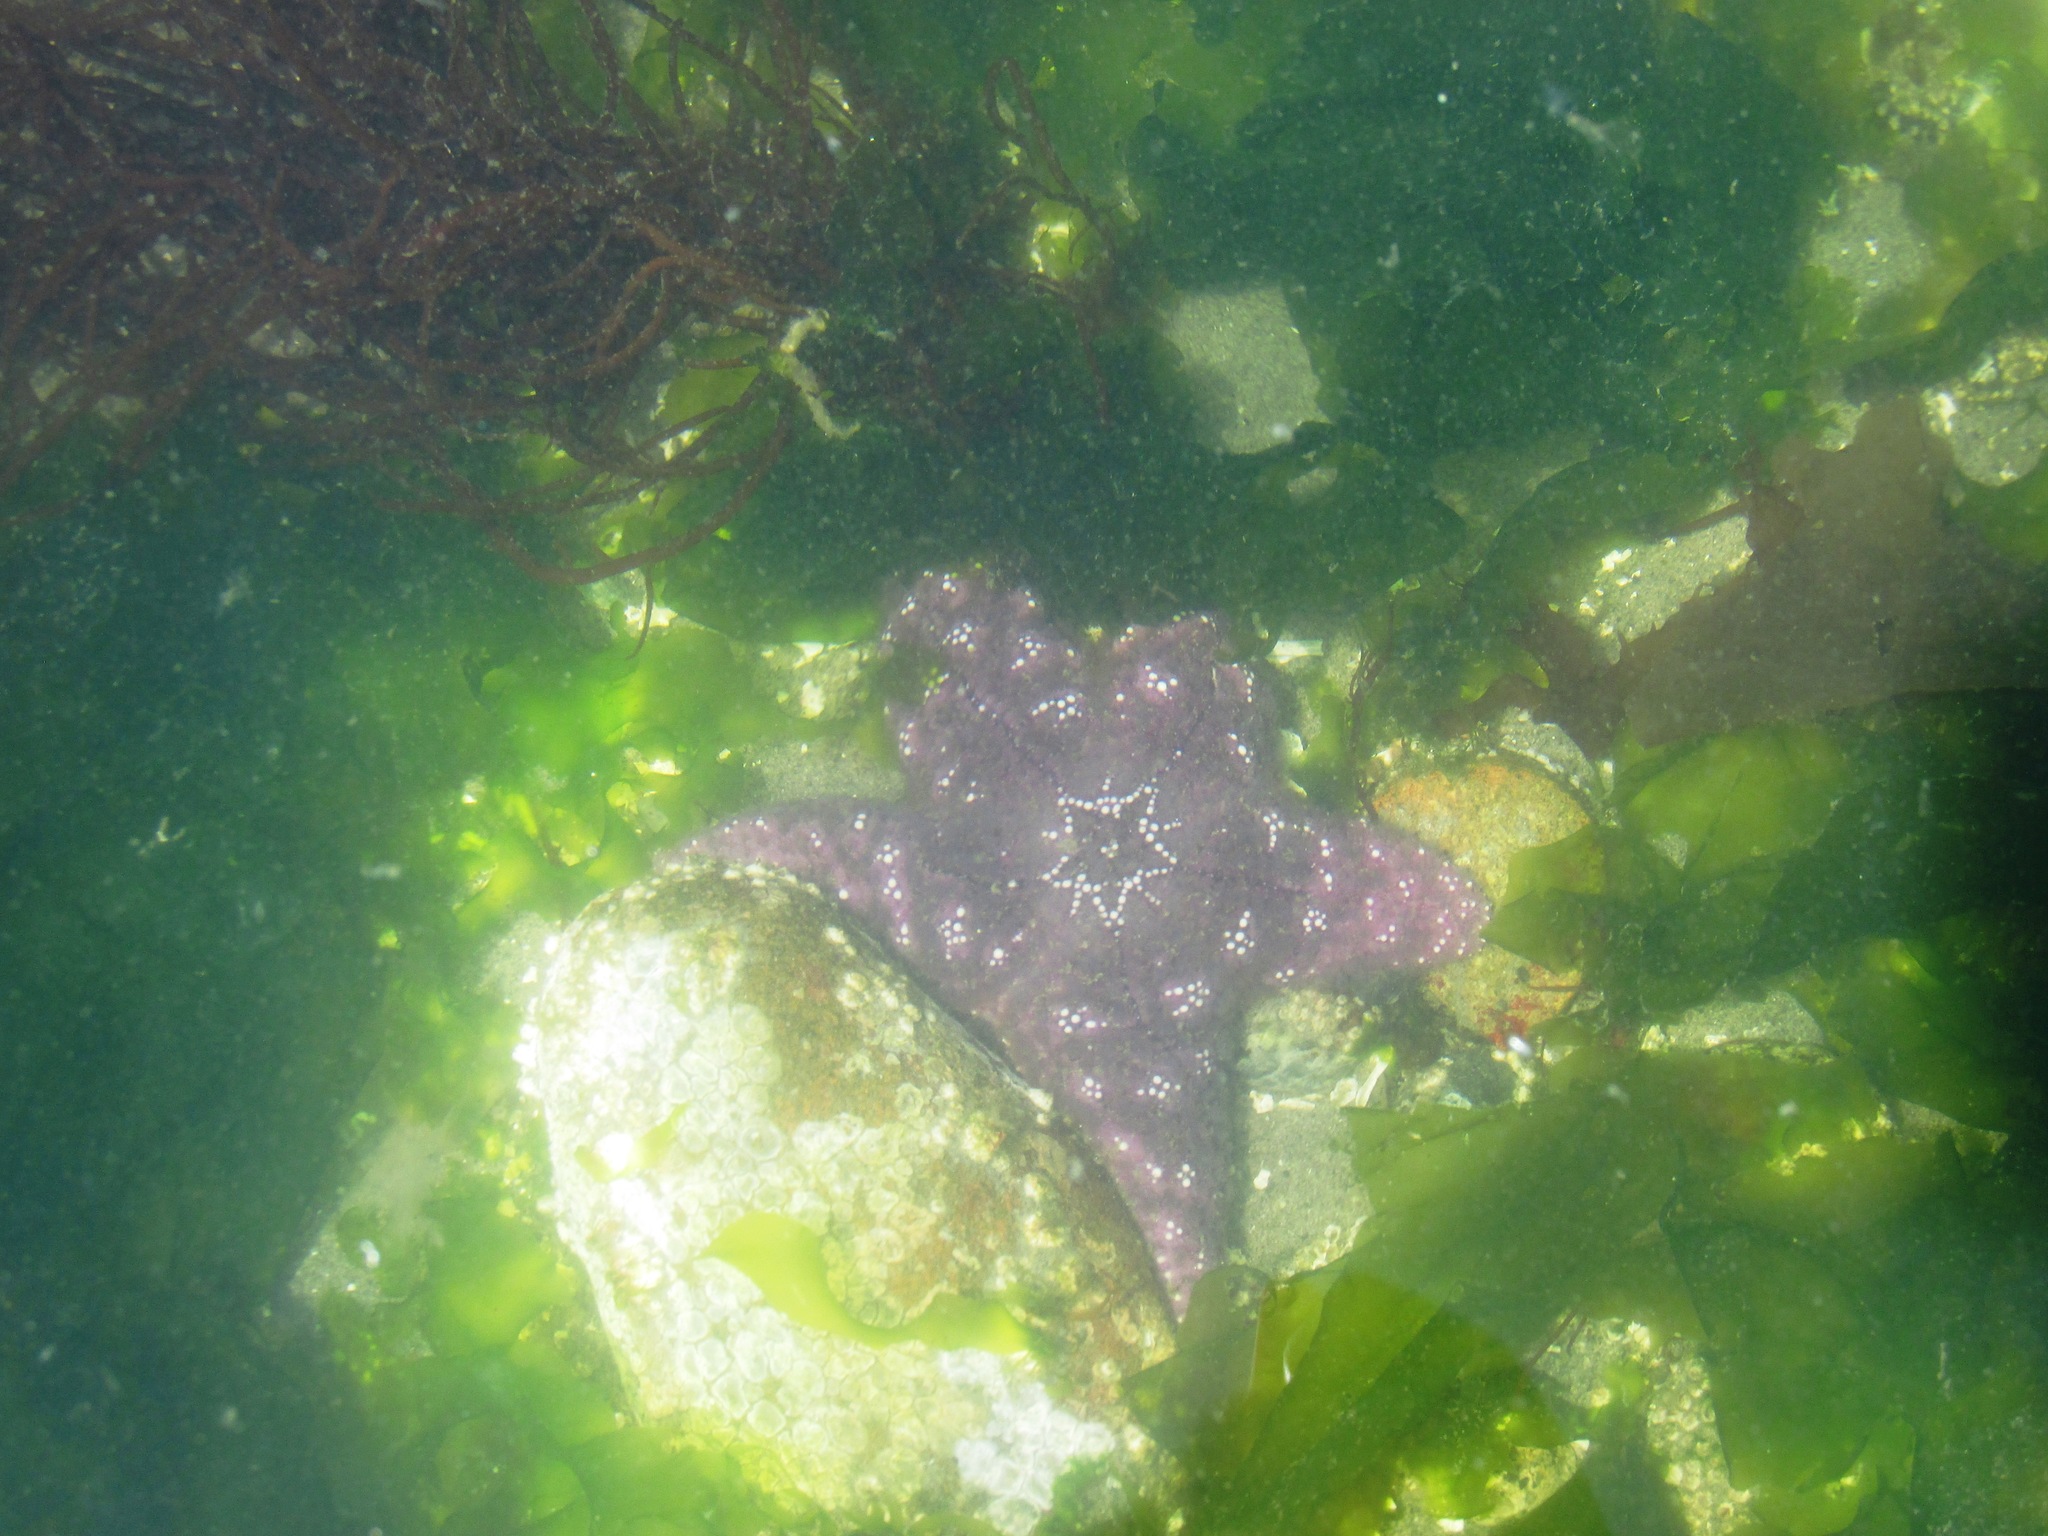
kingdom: Animalia
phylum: Echinodermata
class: Asteroidea
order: Forcipulatida
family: Asteriidae
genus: Pisaster
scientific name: Pisaster ochraceus
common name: Ochre stars
